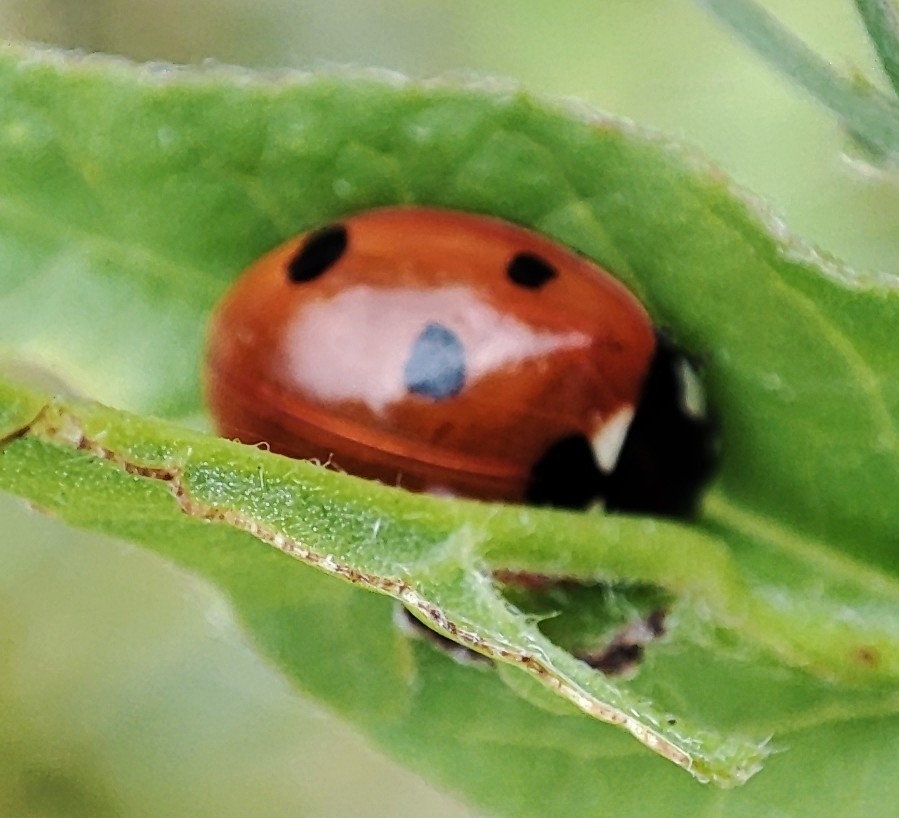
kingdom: Animalia
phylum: Arthropoda
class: Insecta
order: Coleoptera
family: Coccinellidae
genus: Coccinella
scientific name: Coccinella septempunctata
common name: Sevenspotted lady beetle
